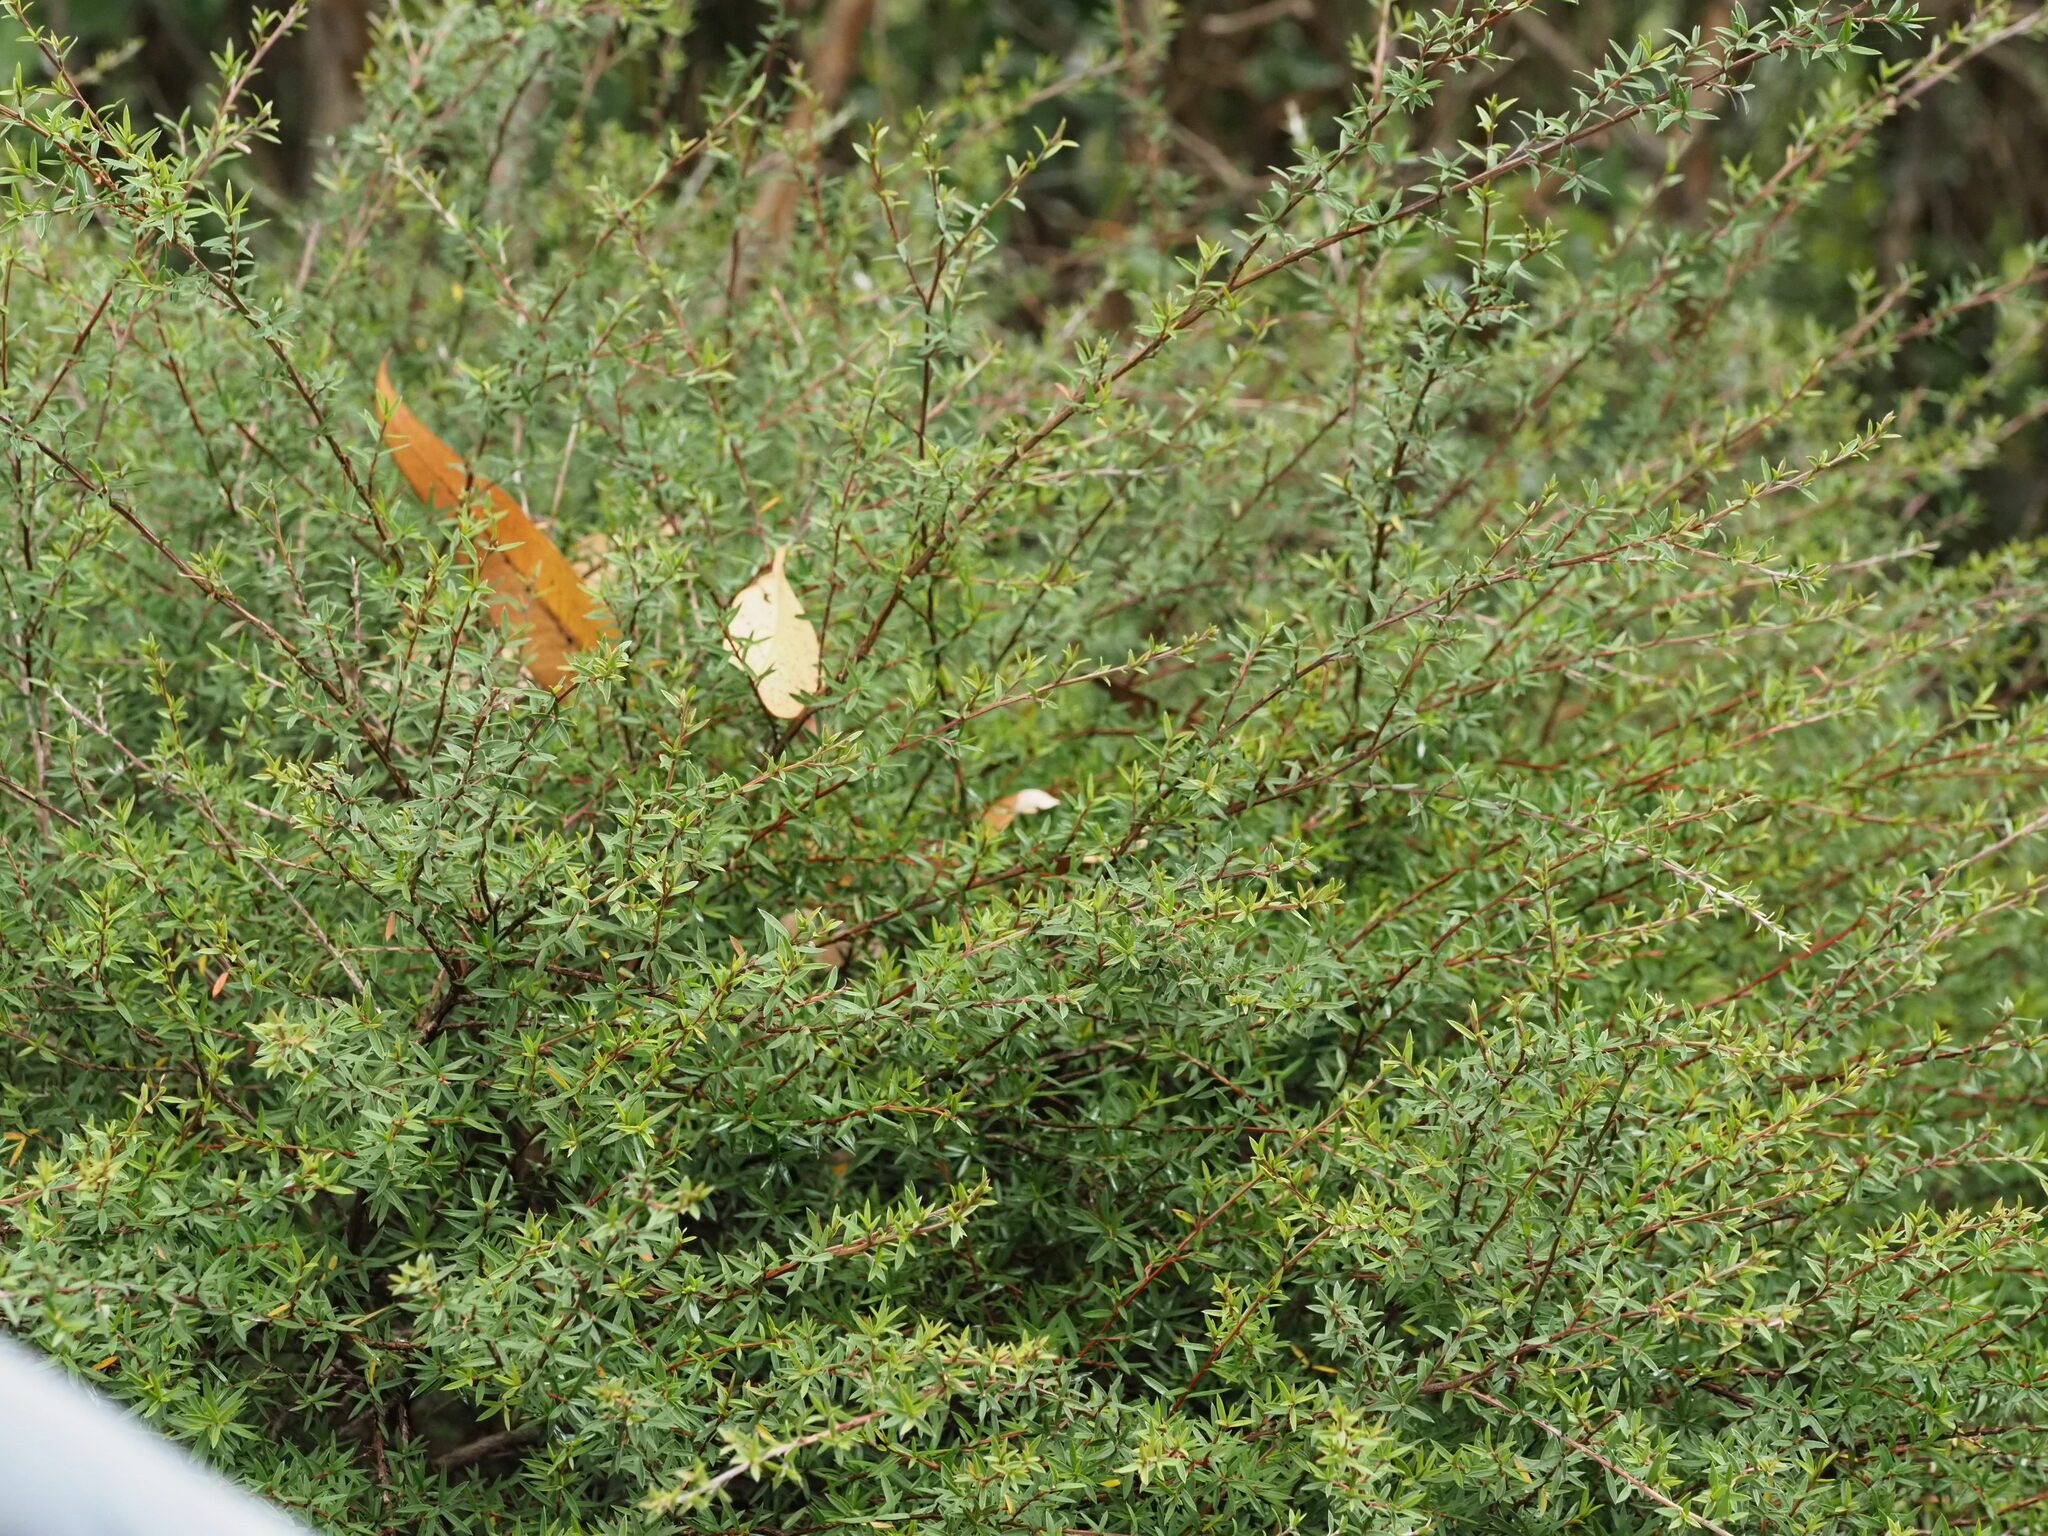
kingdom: Plantae
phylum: Tracheophyta
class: Magnoliopsida
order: Myrtales
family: Myrtaceae
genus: Leptospermum
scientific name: Leptospermum scoparium
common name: Broom tea-tree
